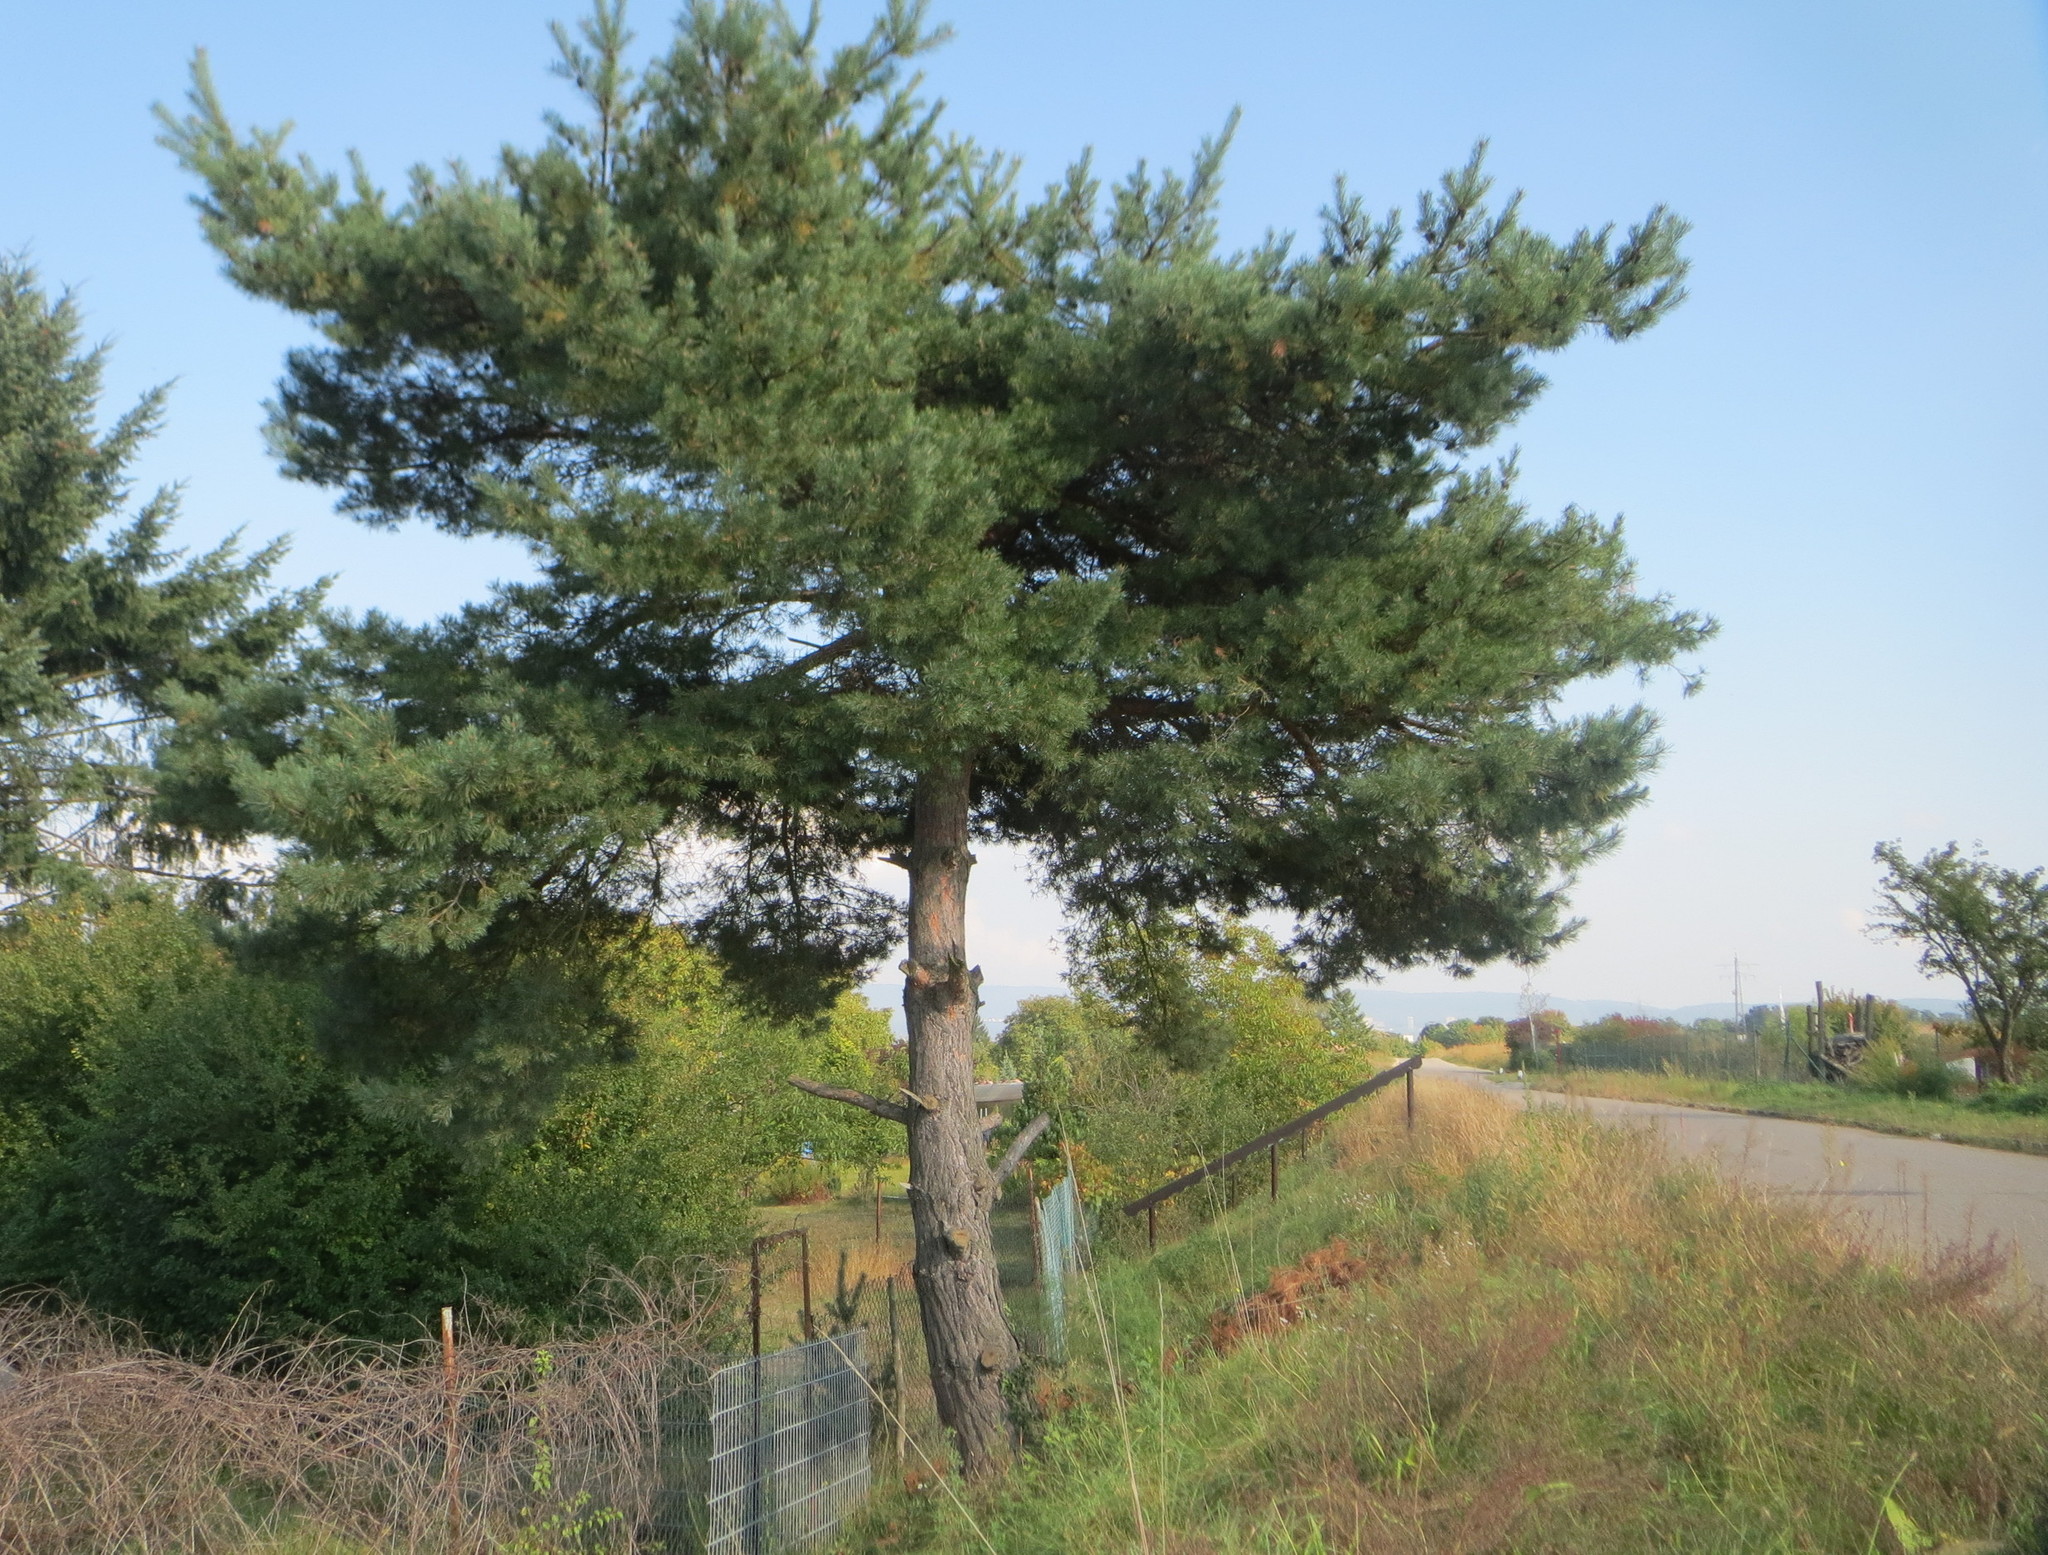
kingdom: Plantae
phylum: Tracheophyta
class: Pinopsida
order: Pinales
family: Pinaceae
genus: Pinus
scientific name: Pinus sylvestris
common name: Scots pine
